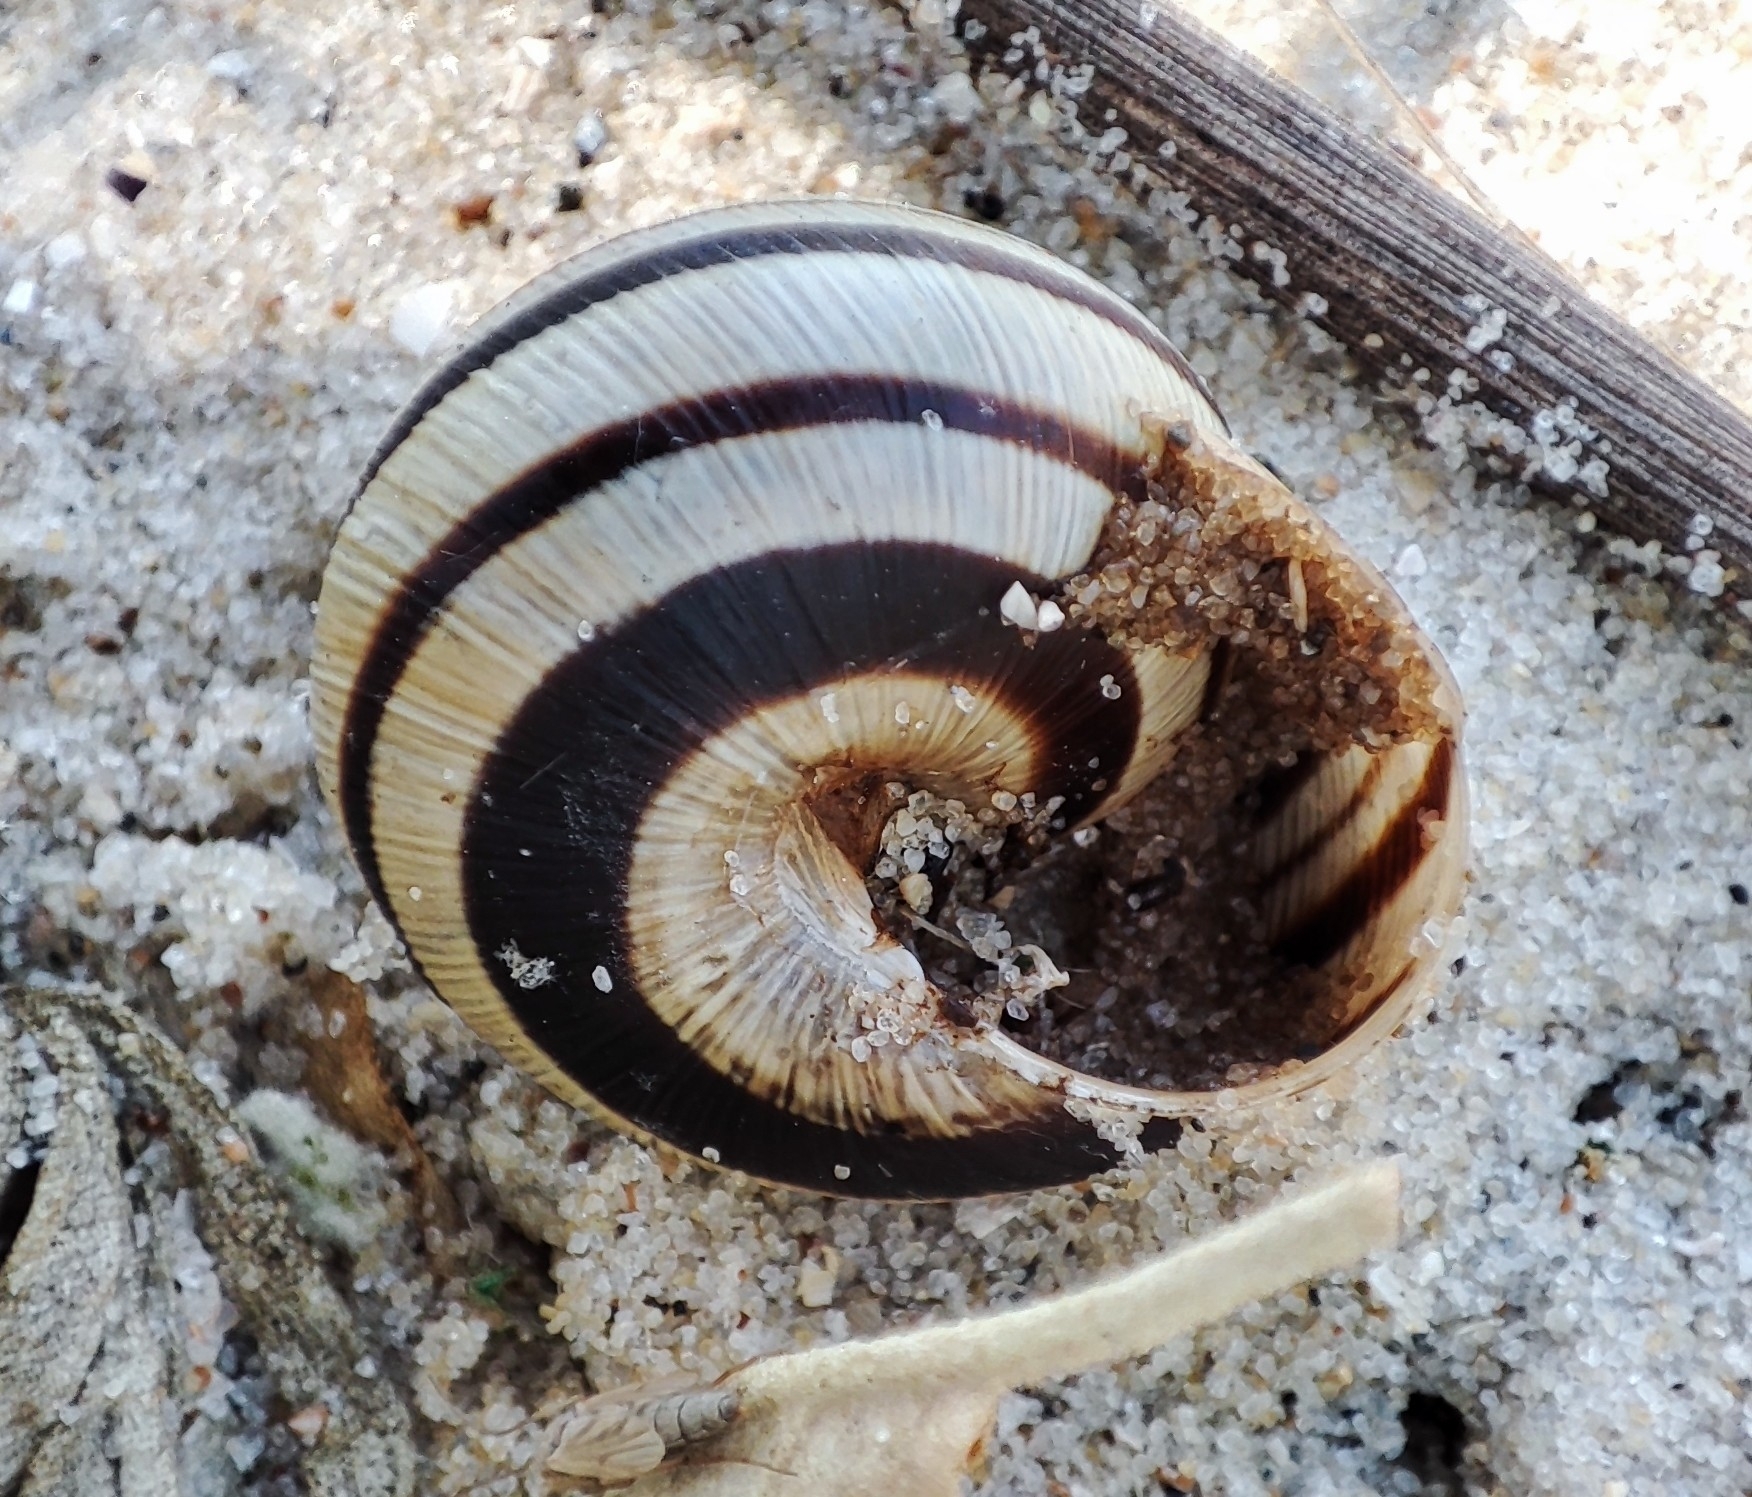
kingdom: Animalia
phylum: Mollusca
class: Gastropoda
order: Stylommatophora
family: Helicidae
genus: Caucasotachea
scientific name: Caucasotachea vindobonensis
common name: European helicid land snail
